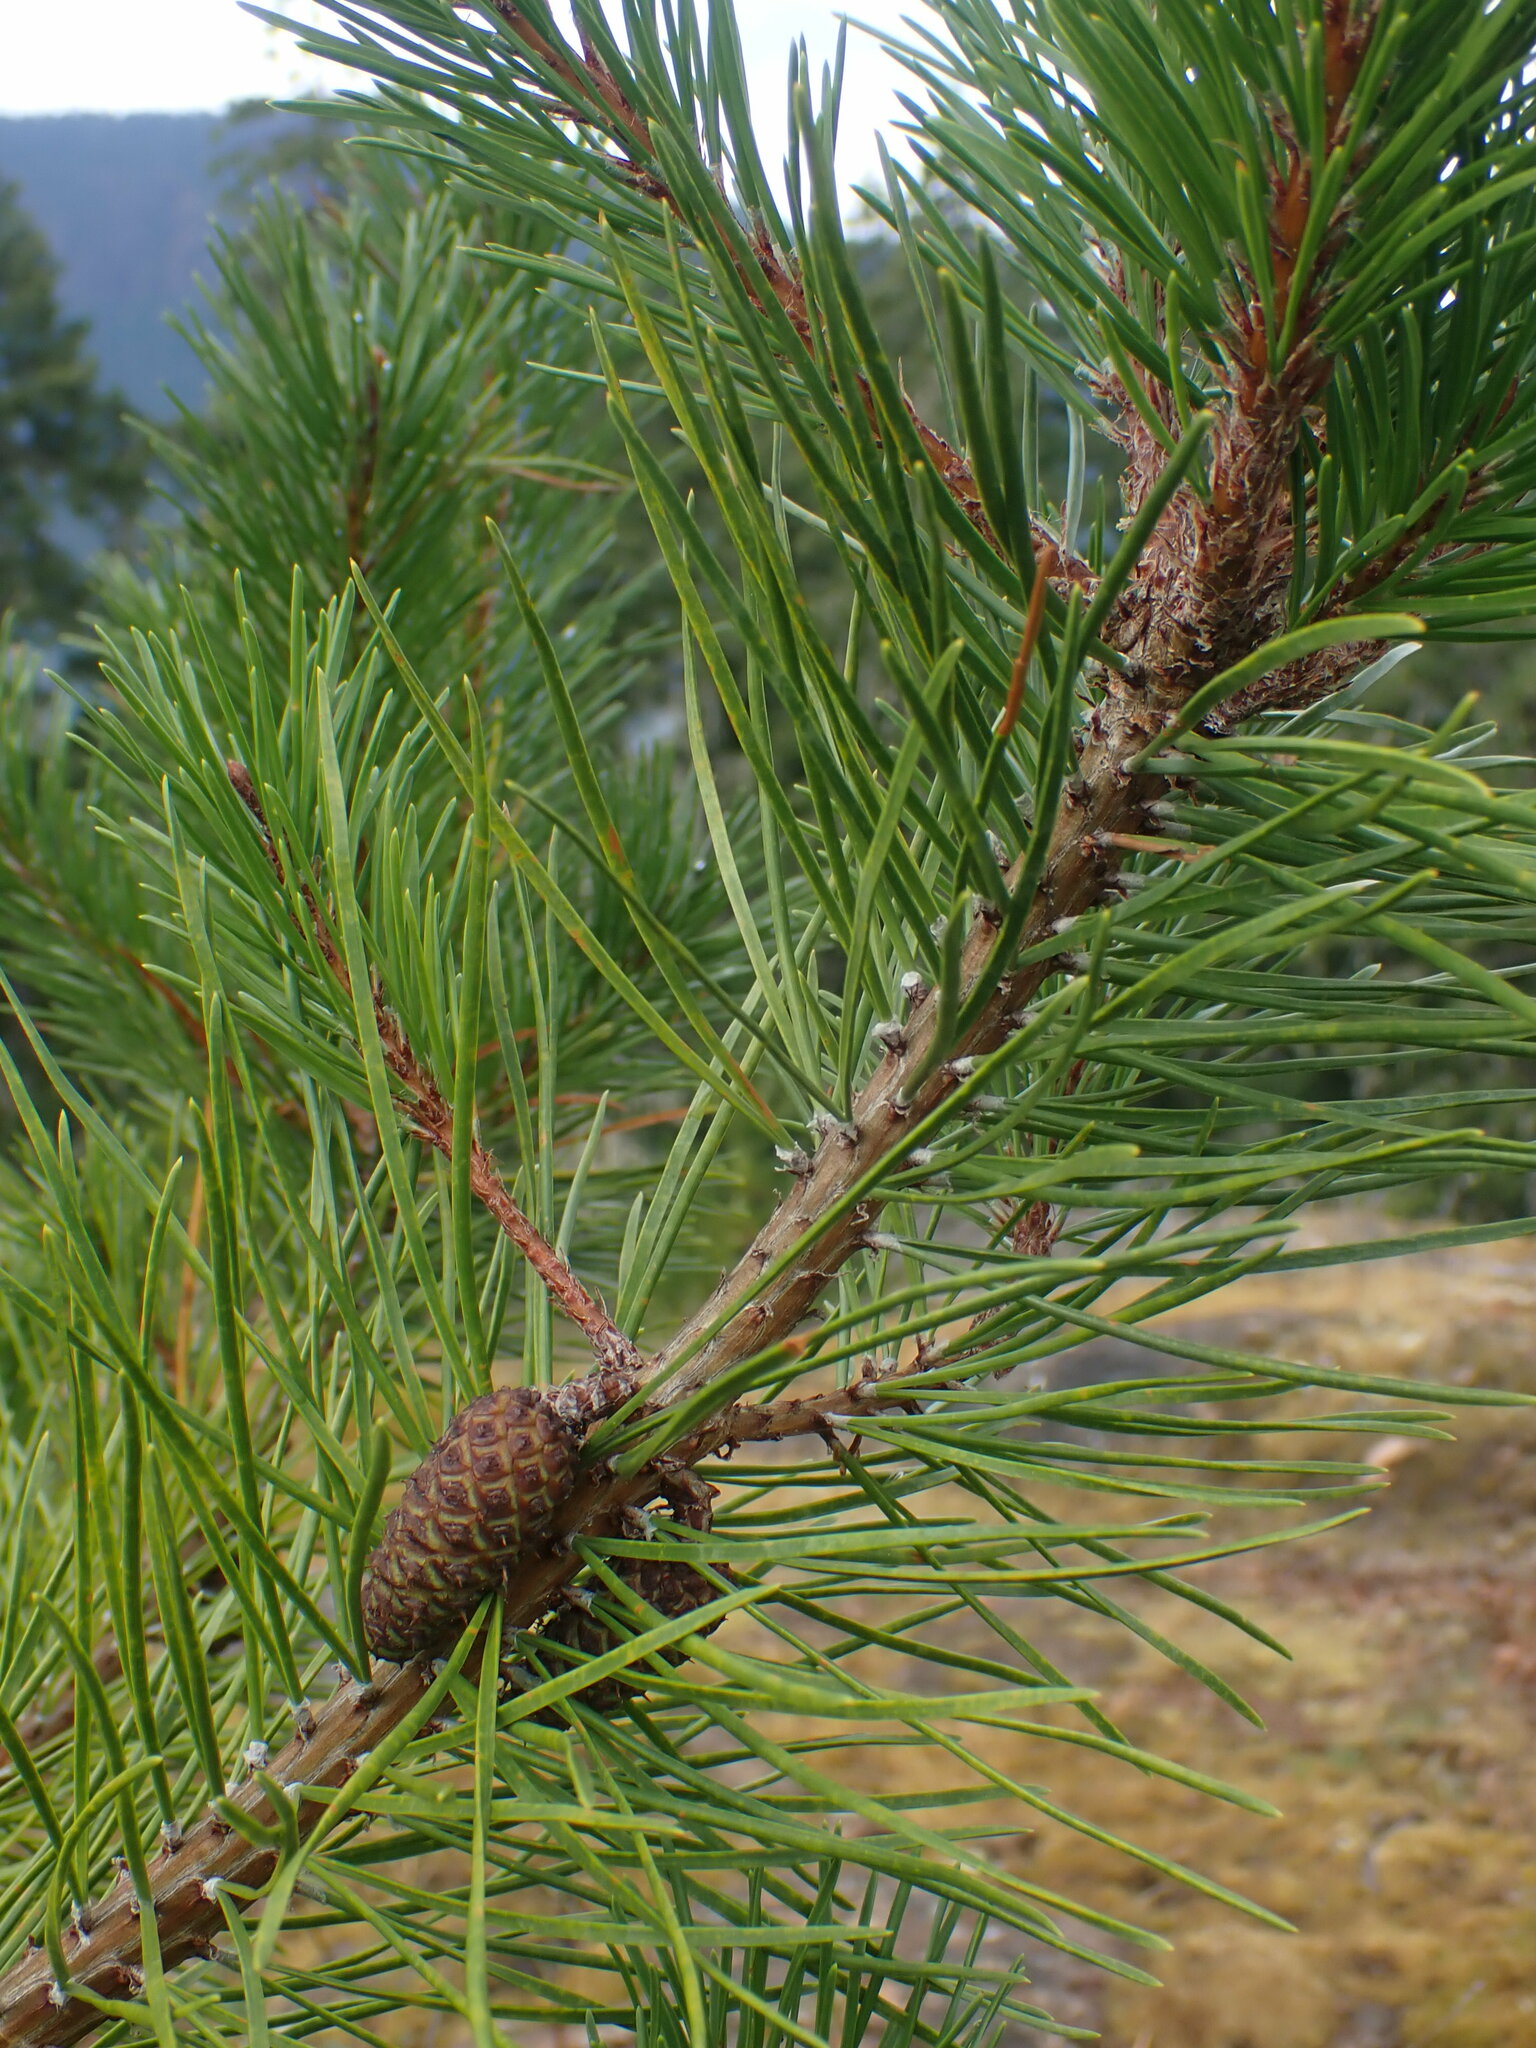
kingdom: Plantae
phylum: Tracheophyta
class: Pinopsida
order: Pinales
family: Pinaceae
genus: Pinus
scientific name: Pinus contorta
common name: Lodgepole pine
